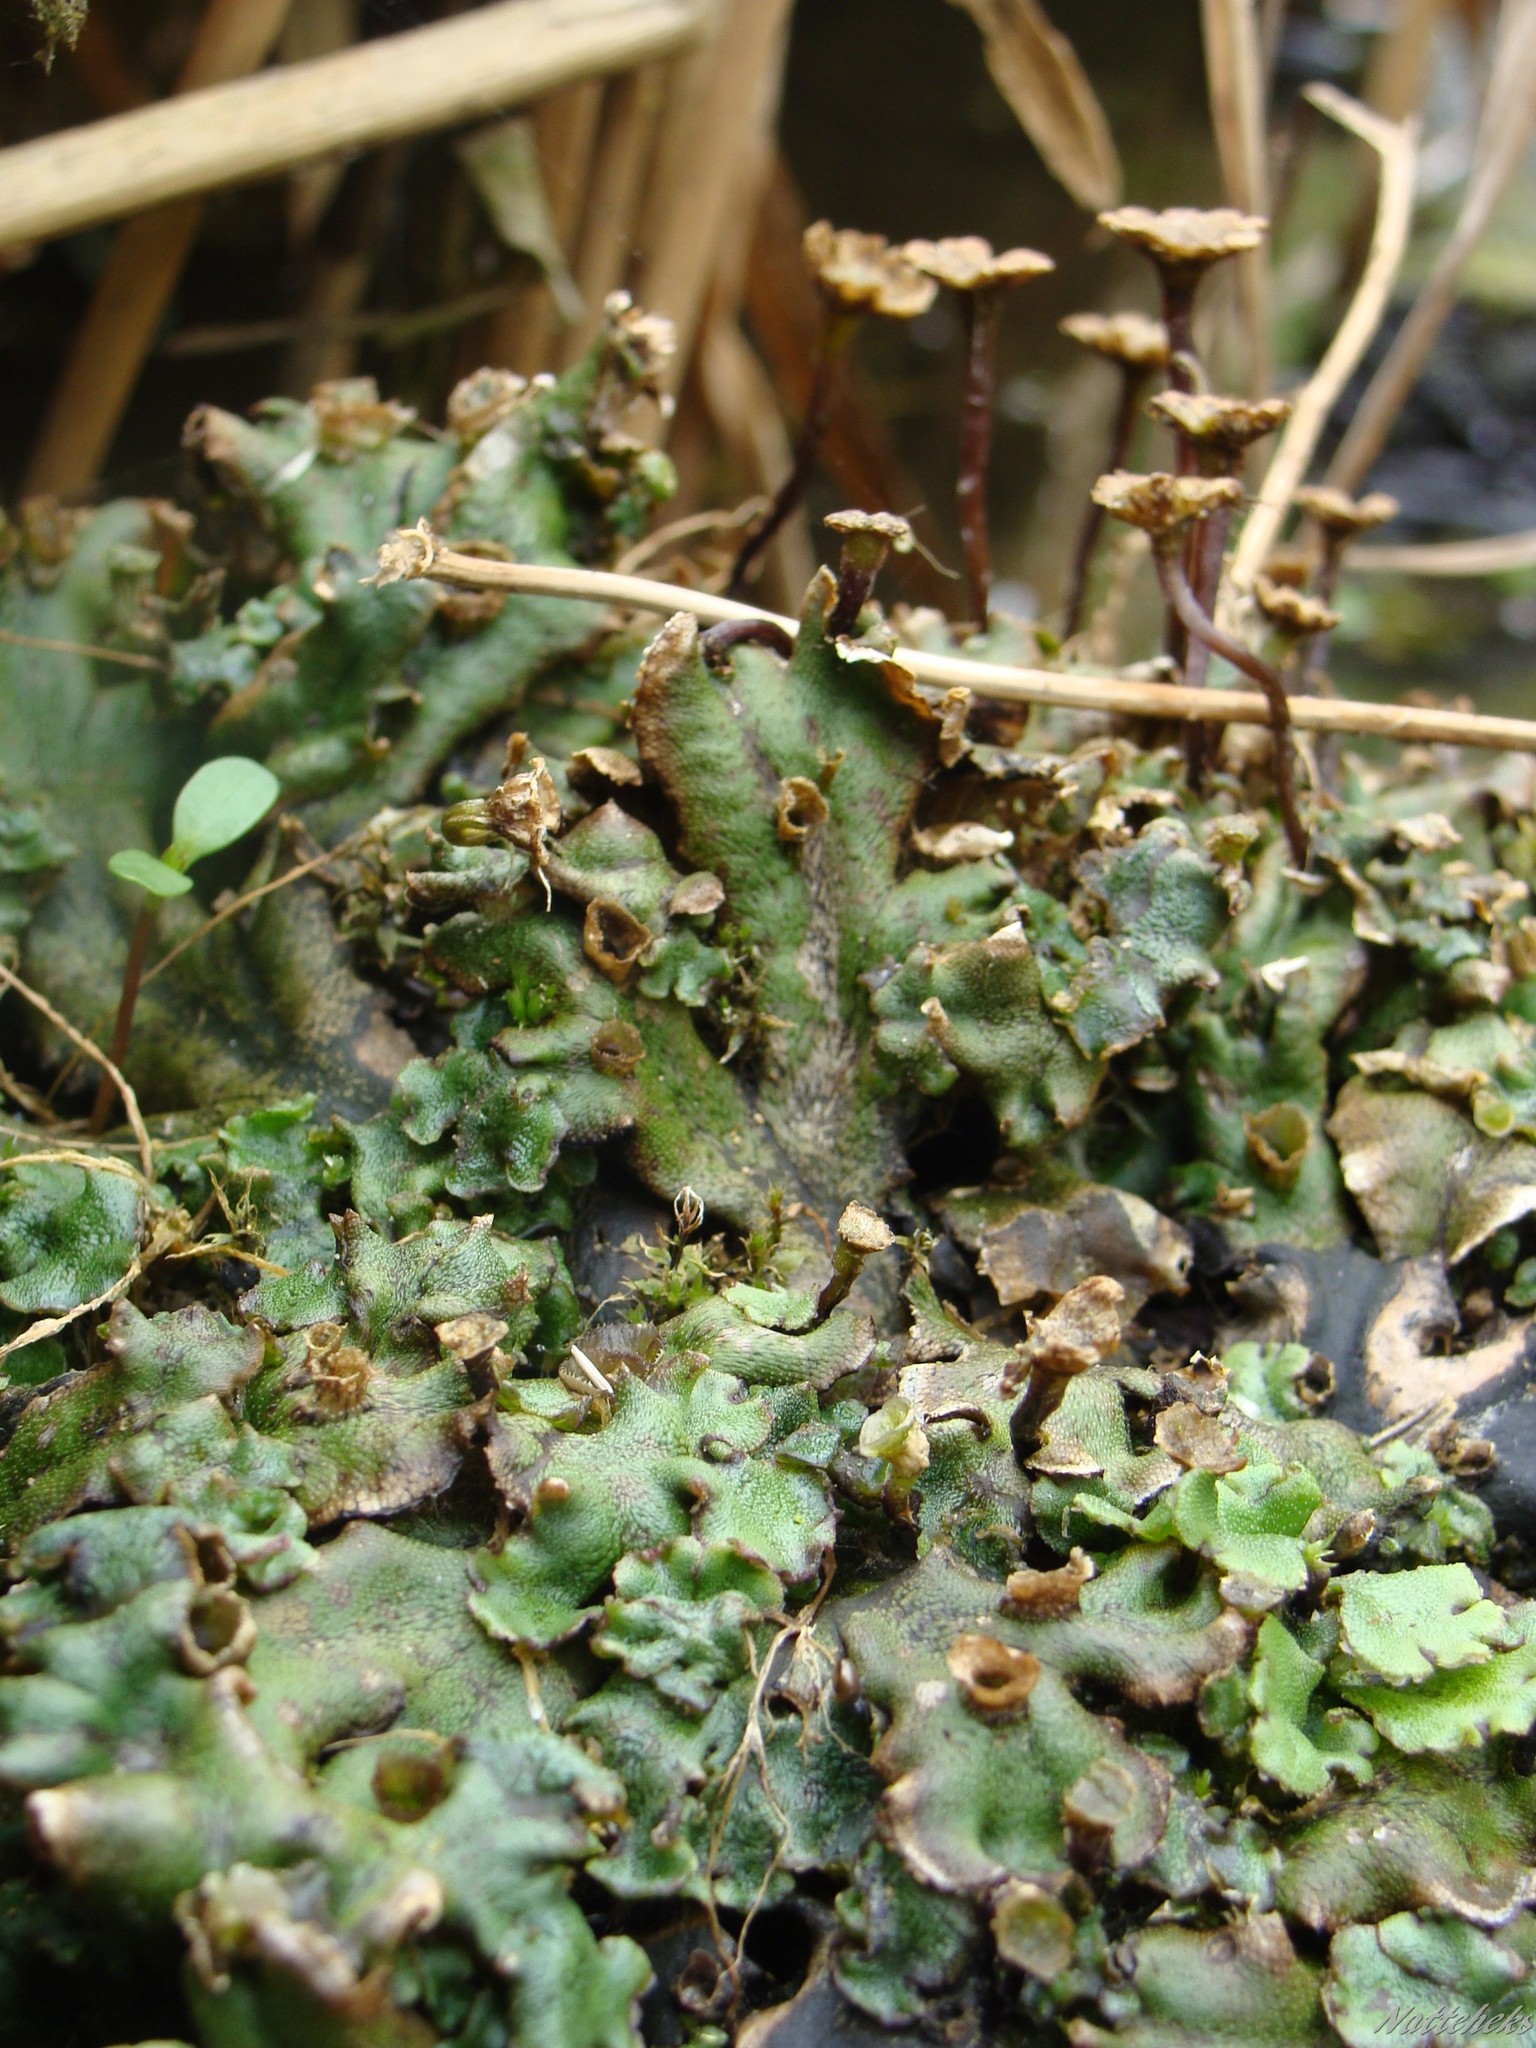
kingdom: Plantae
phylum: Marchantiophyta
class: Marchantiopsida
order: Marchantiales
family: Marchantiaceae
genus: Marchantia
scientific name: Marchantia polymorpha
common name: Common liverwort
